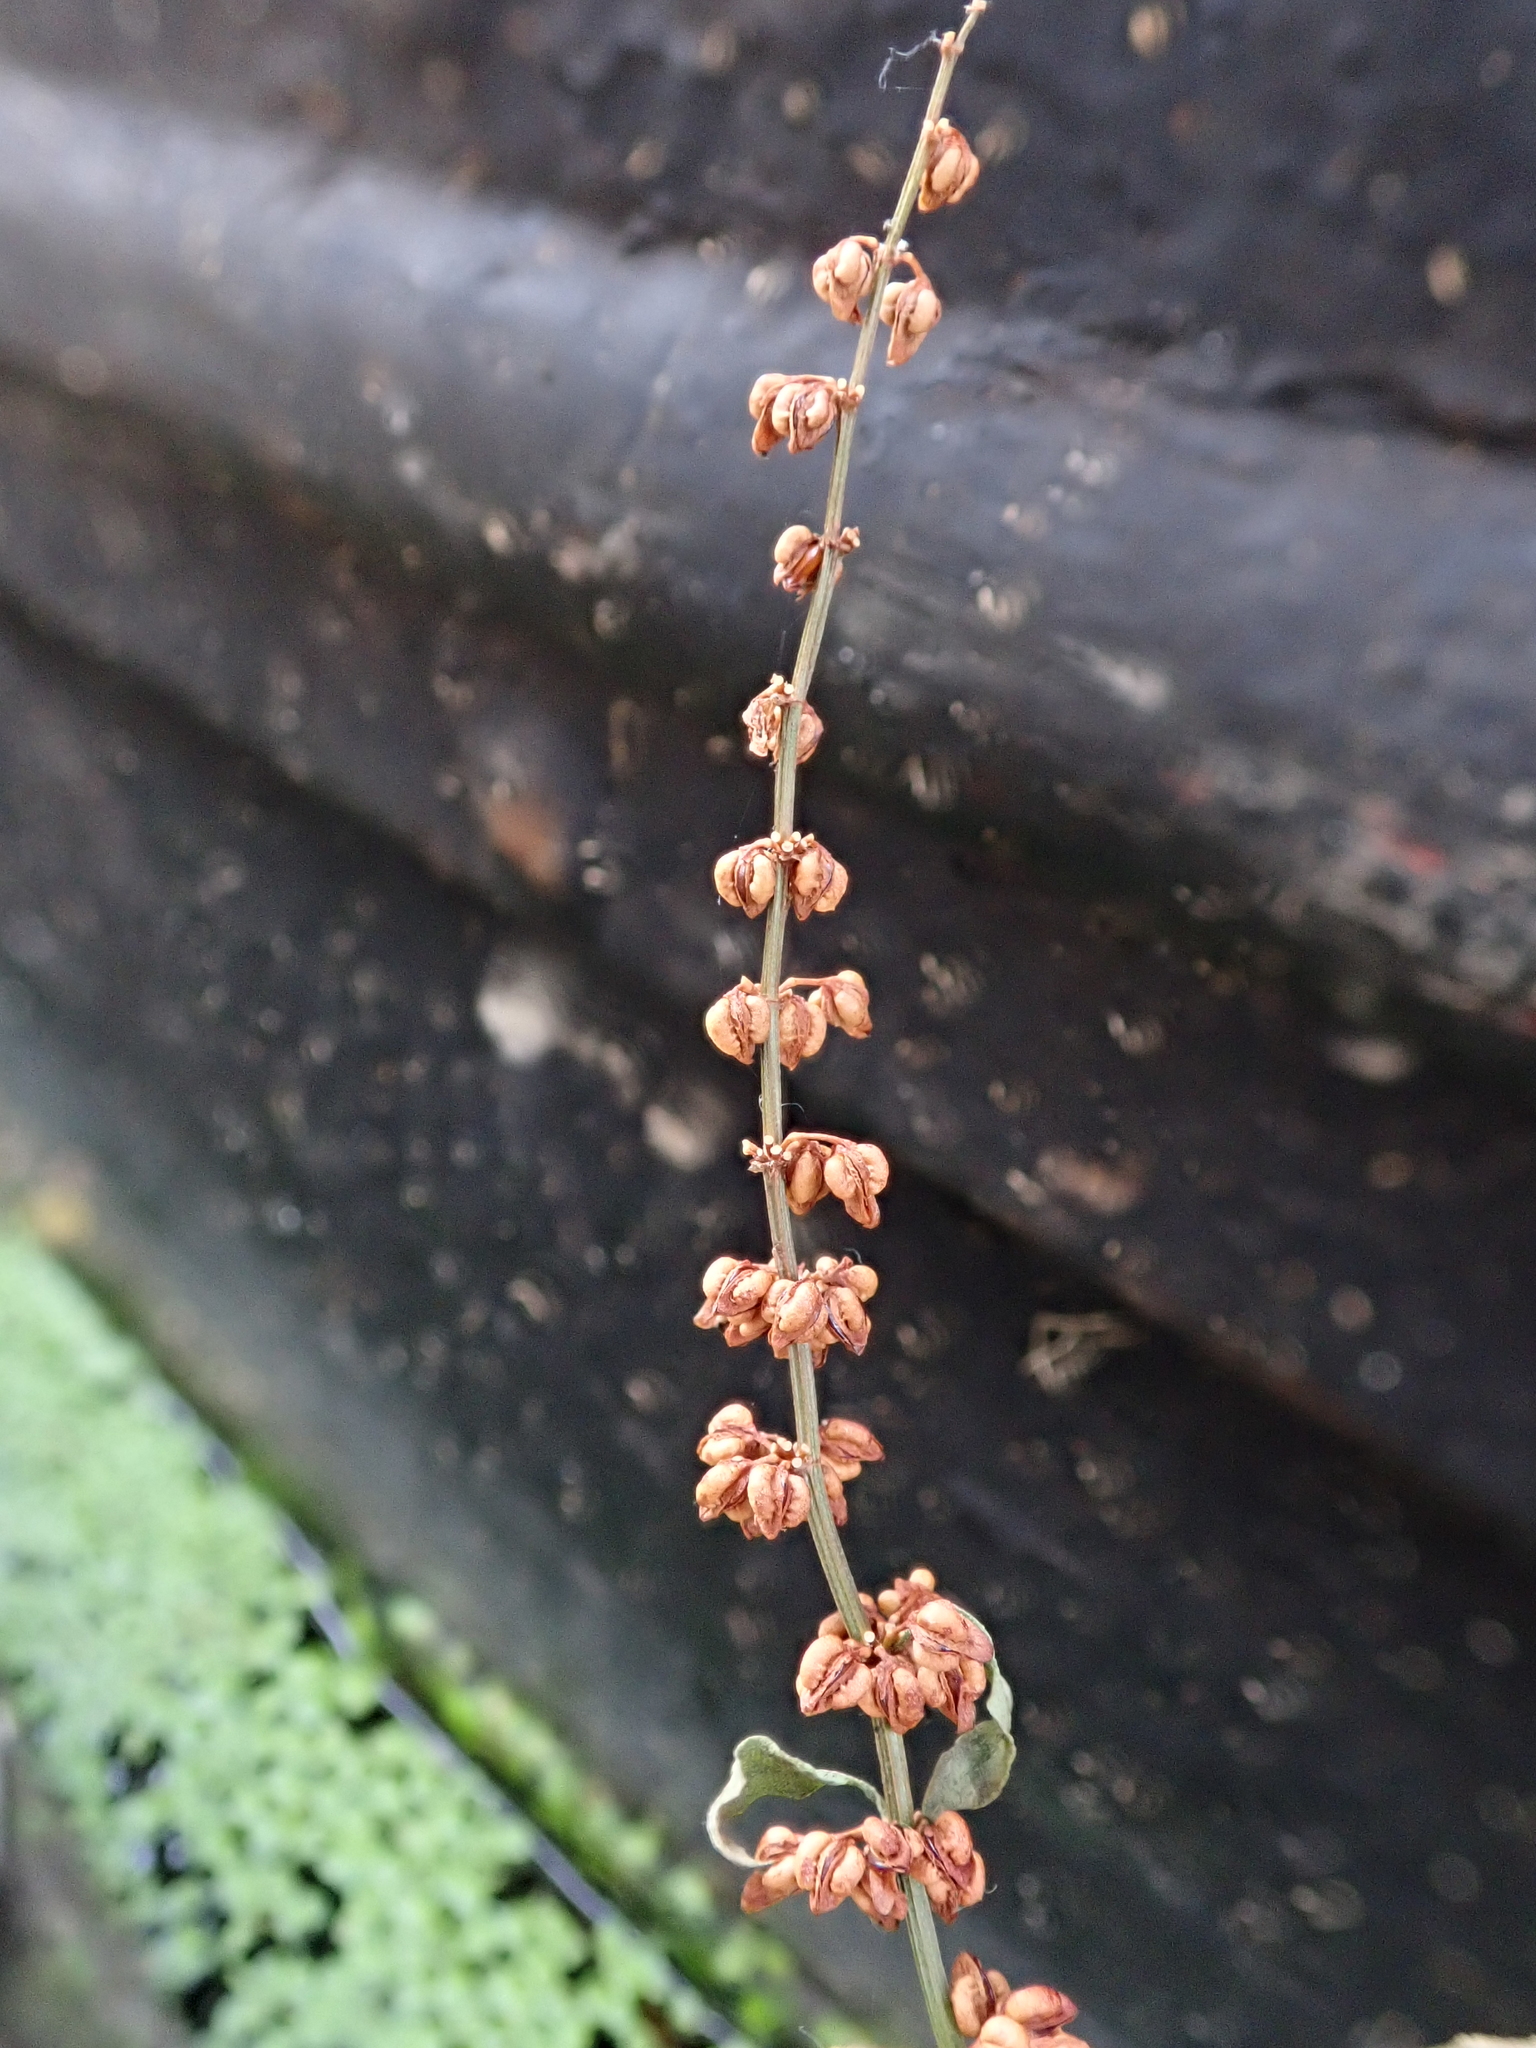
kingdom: Plantae
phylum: Tracheophyta
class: Magnoliopsida
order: Caryophyllales
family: Polygonaceae
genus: Rumex
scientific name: Rumex conglomeratus
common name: Clustered dock
